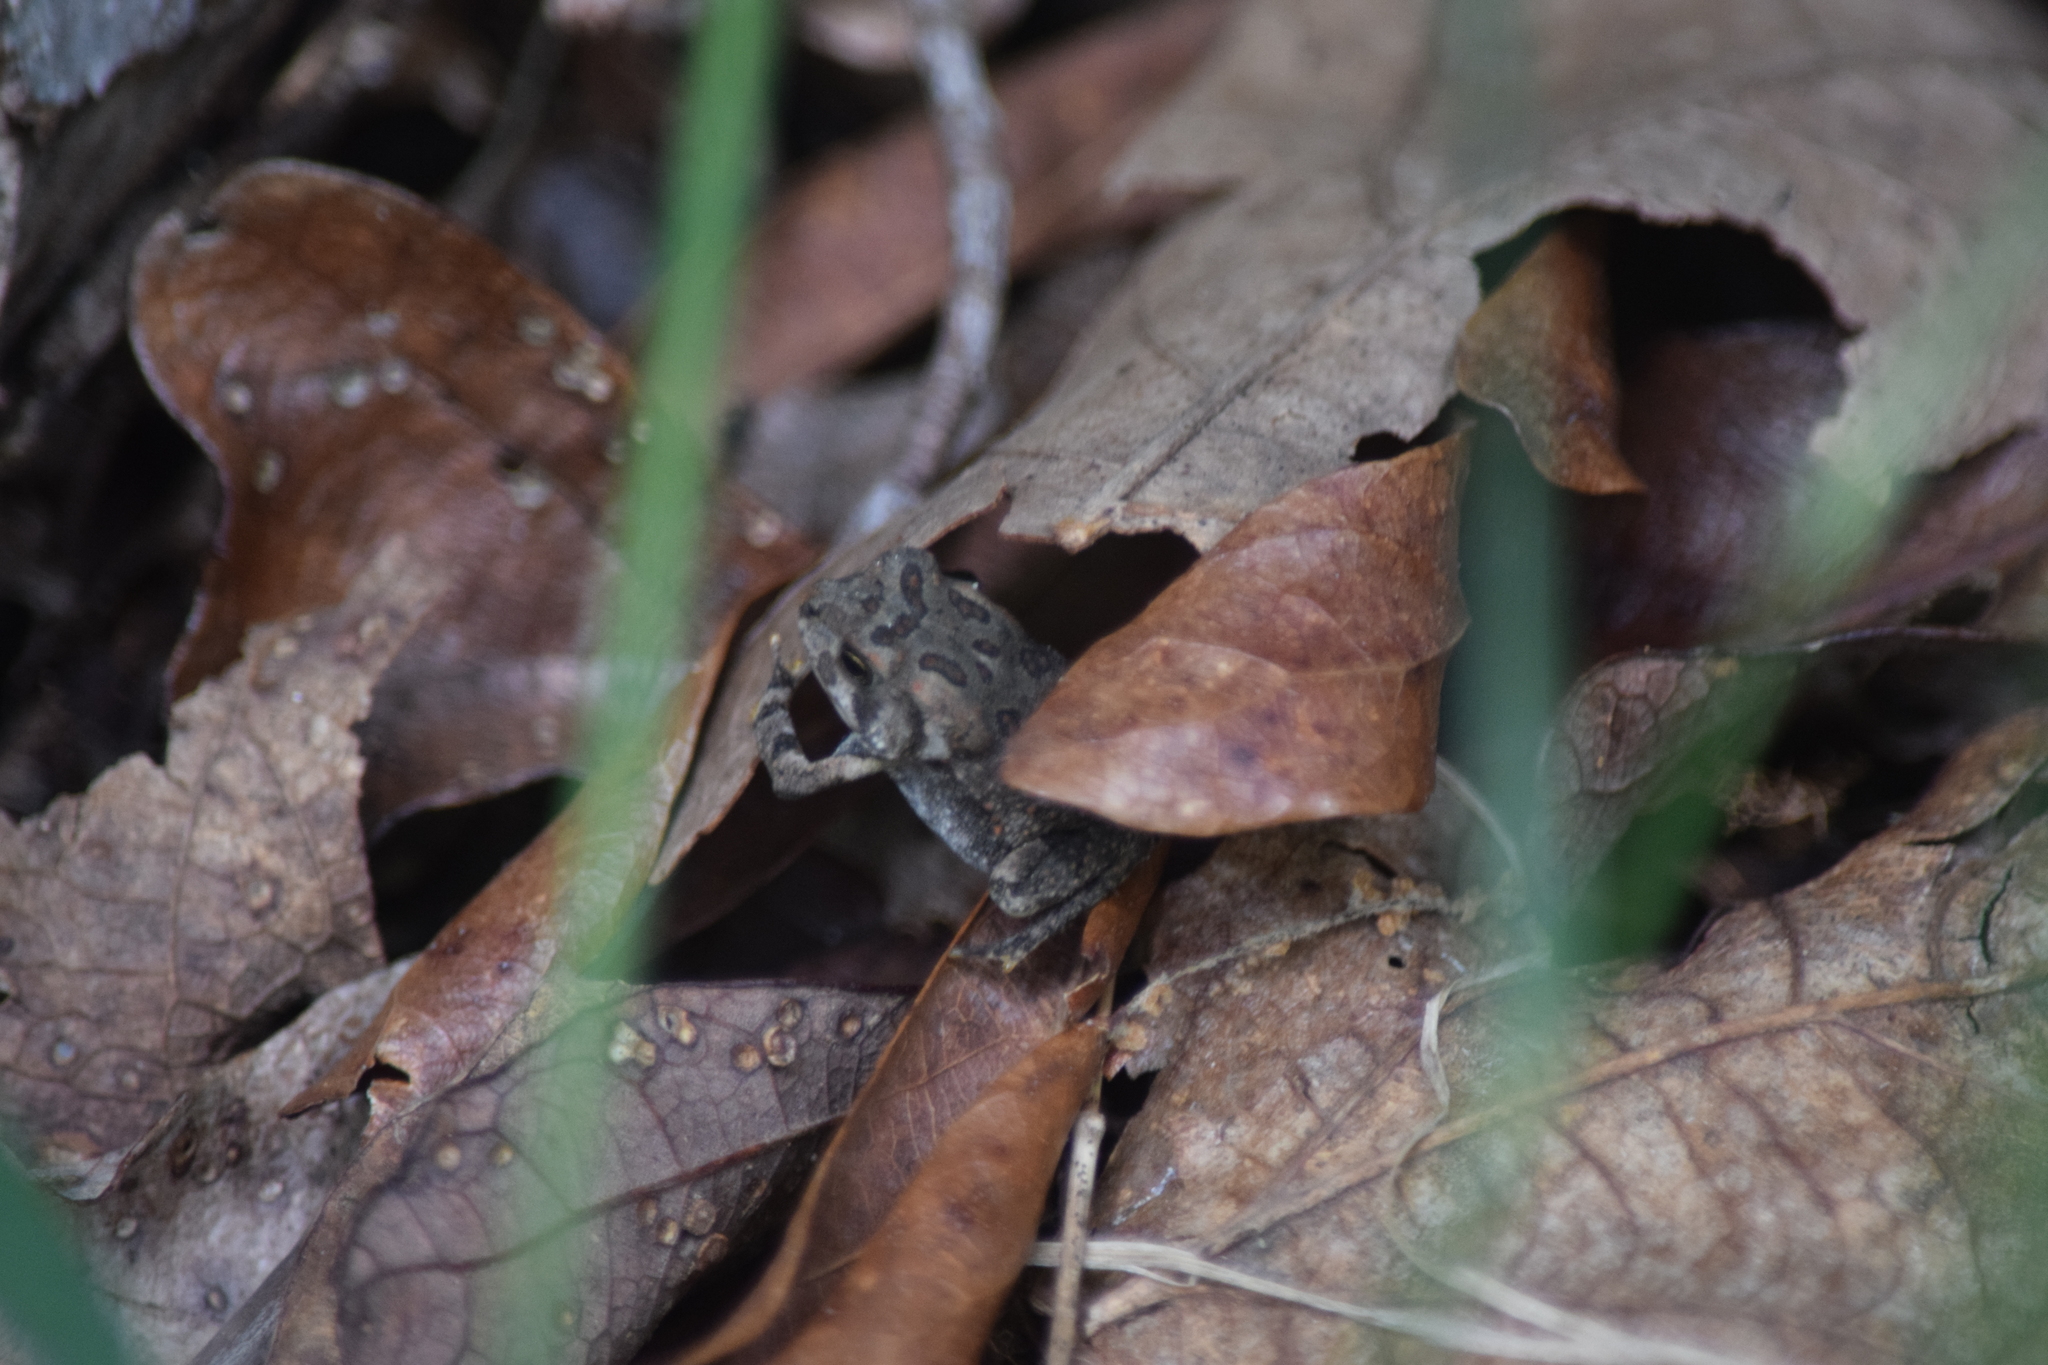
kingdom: Animalia
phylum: Chordata
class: Amphibia
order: Anura
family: Bufonidae
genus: Anaxyrus
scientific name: Anaxyrus fowleri
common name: Fowler's toad
